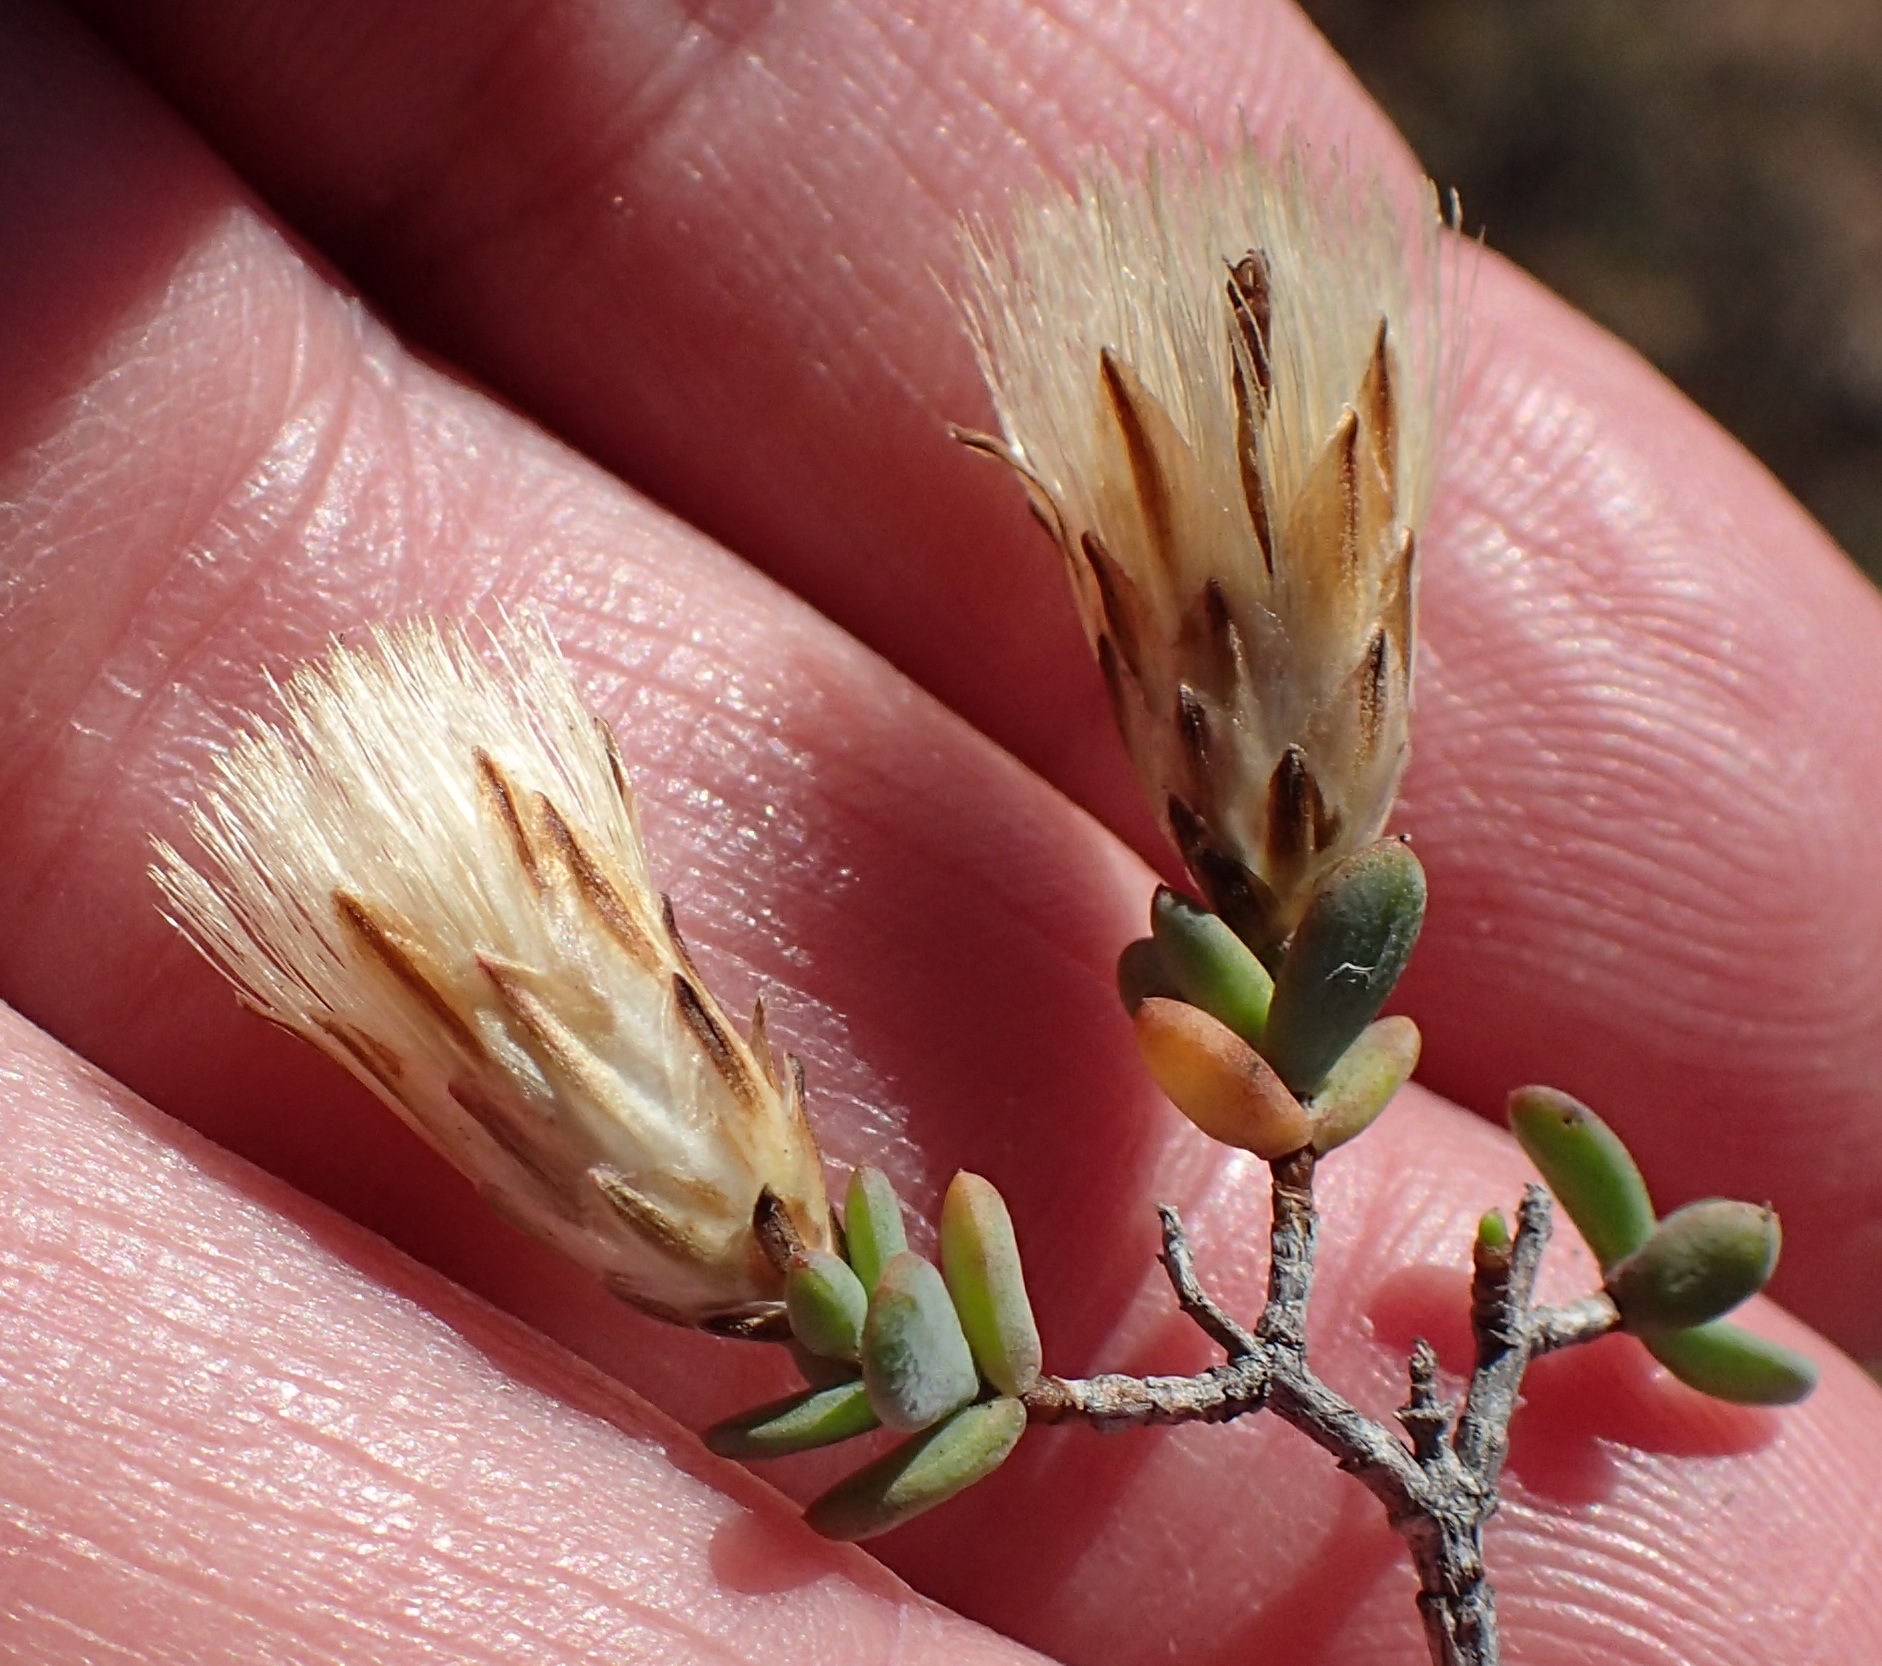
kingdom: Plantae
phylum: Tracheophyta
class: Magnoliopsida
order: Asterales
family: Asteraceae
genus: Pteronia
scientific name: Pteronia oblanceolata
